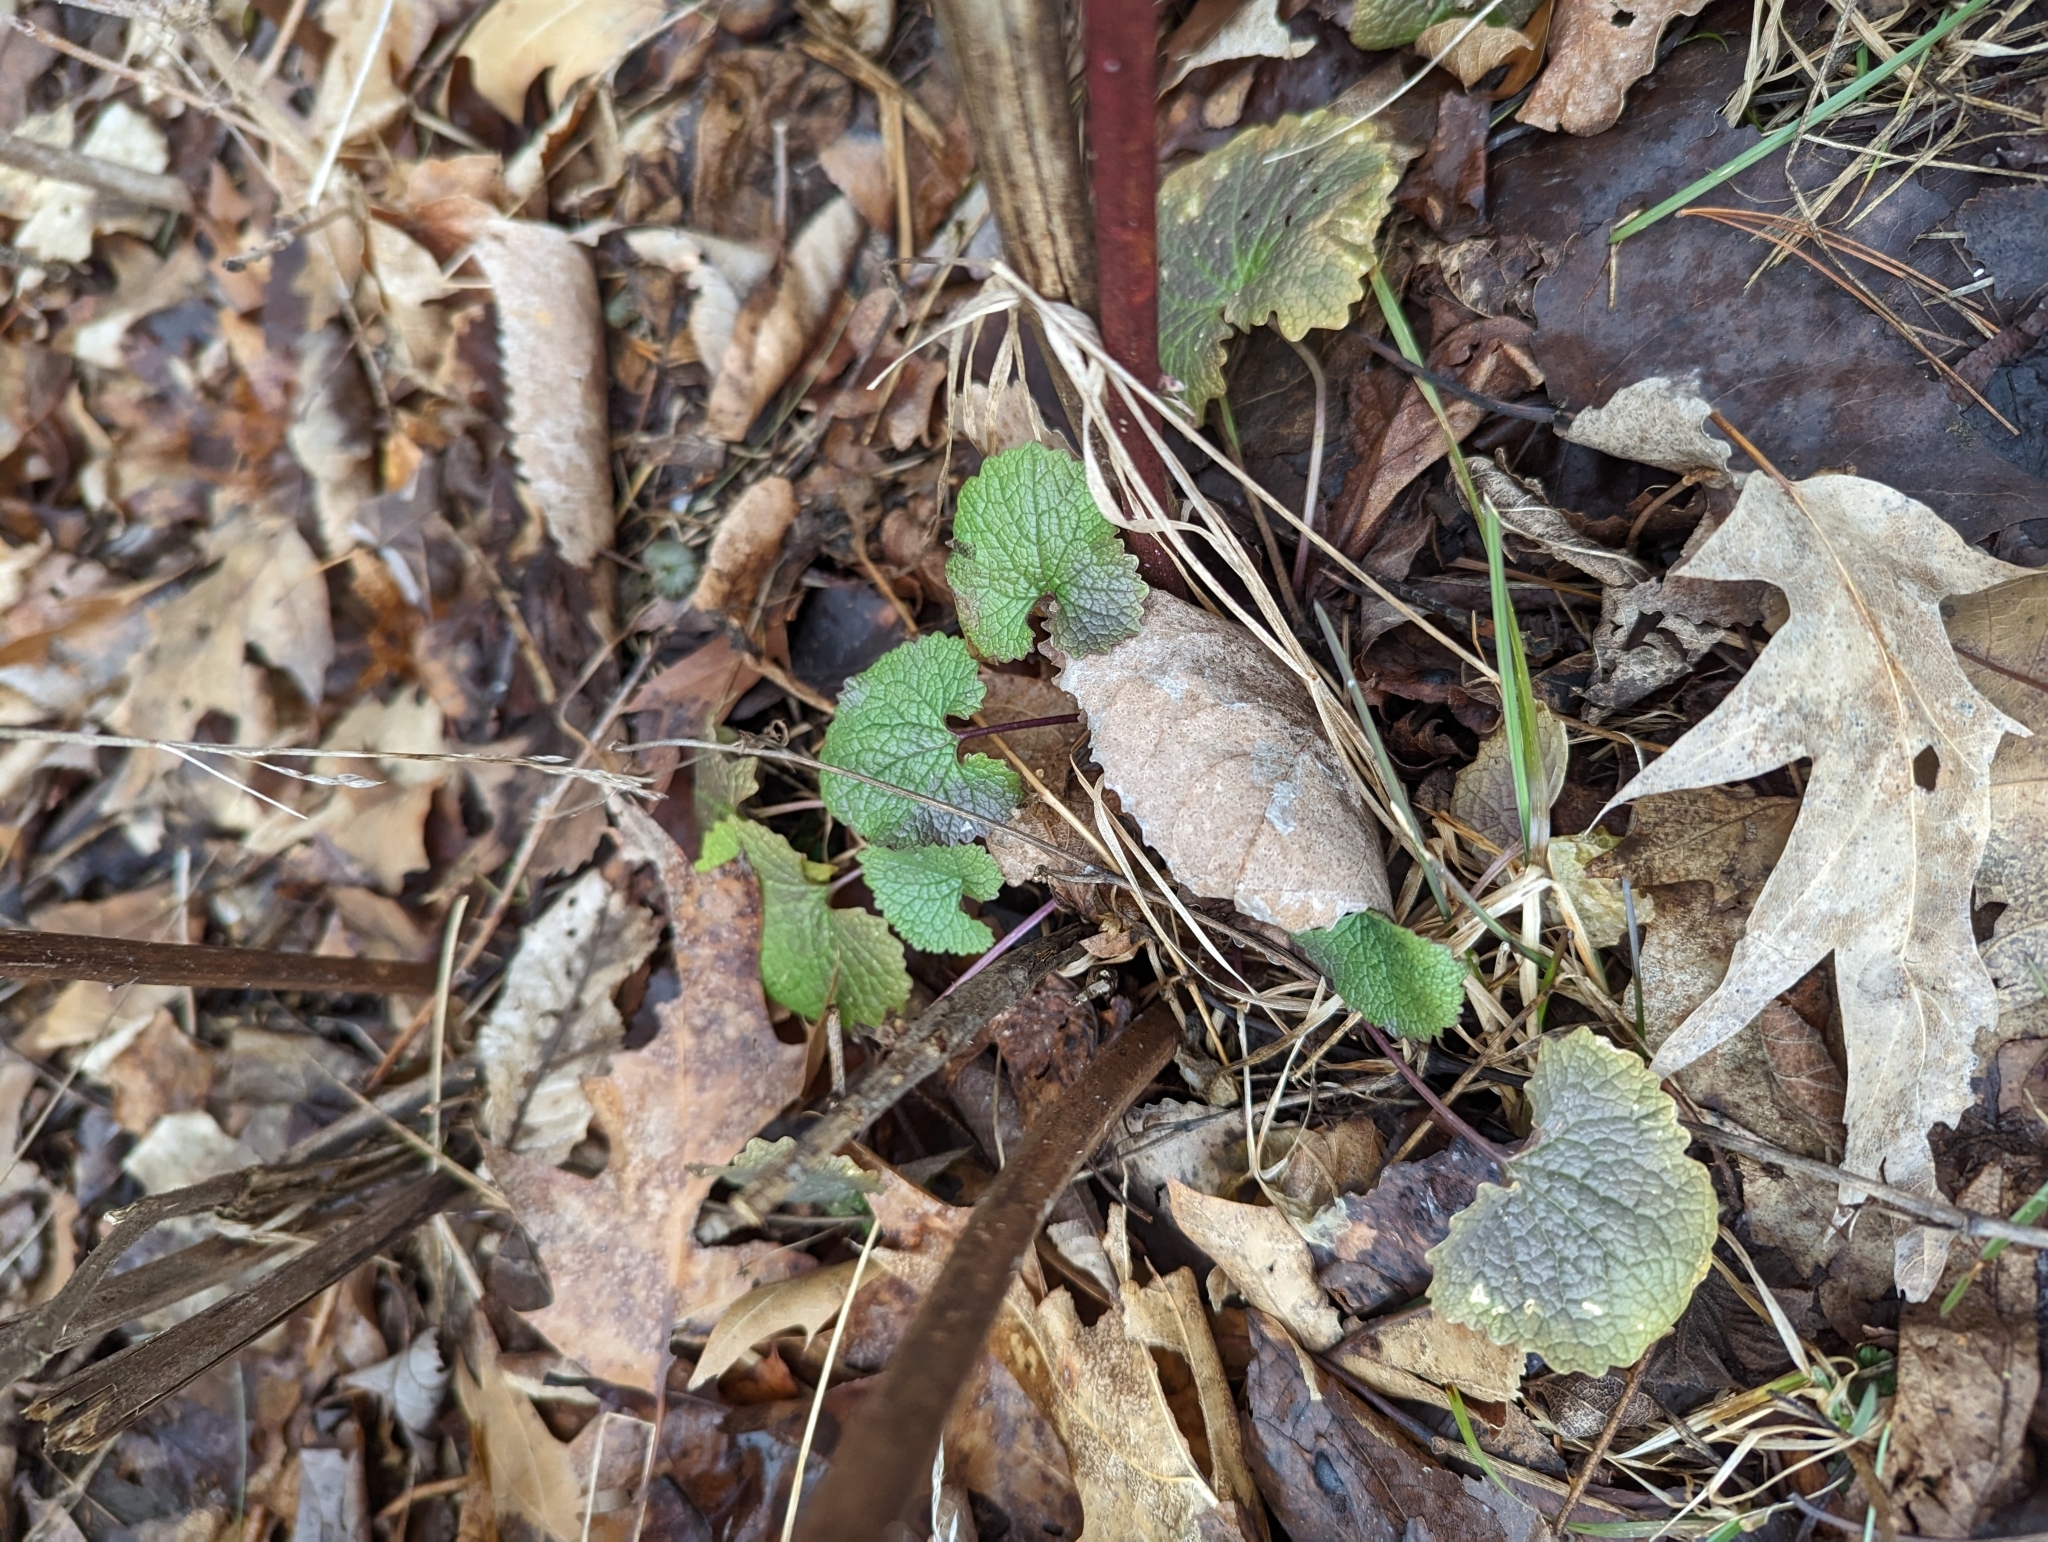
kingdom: Plantae
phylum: Tracheophyta
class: Magnoliopsida
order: Brassicales
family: Brassicaceae
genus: Alliaria
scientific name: Alliaria petiolata
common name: Garlic mustard
